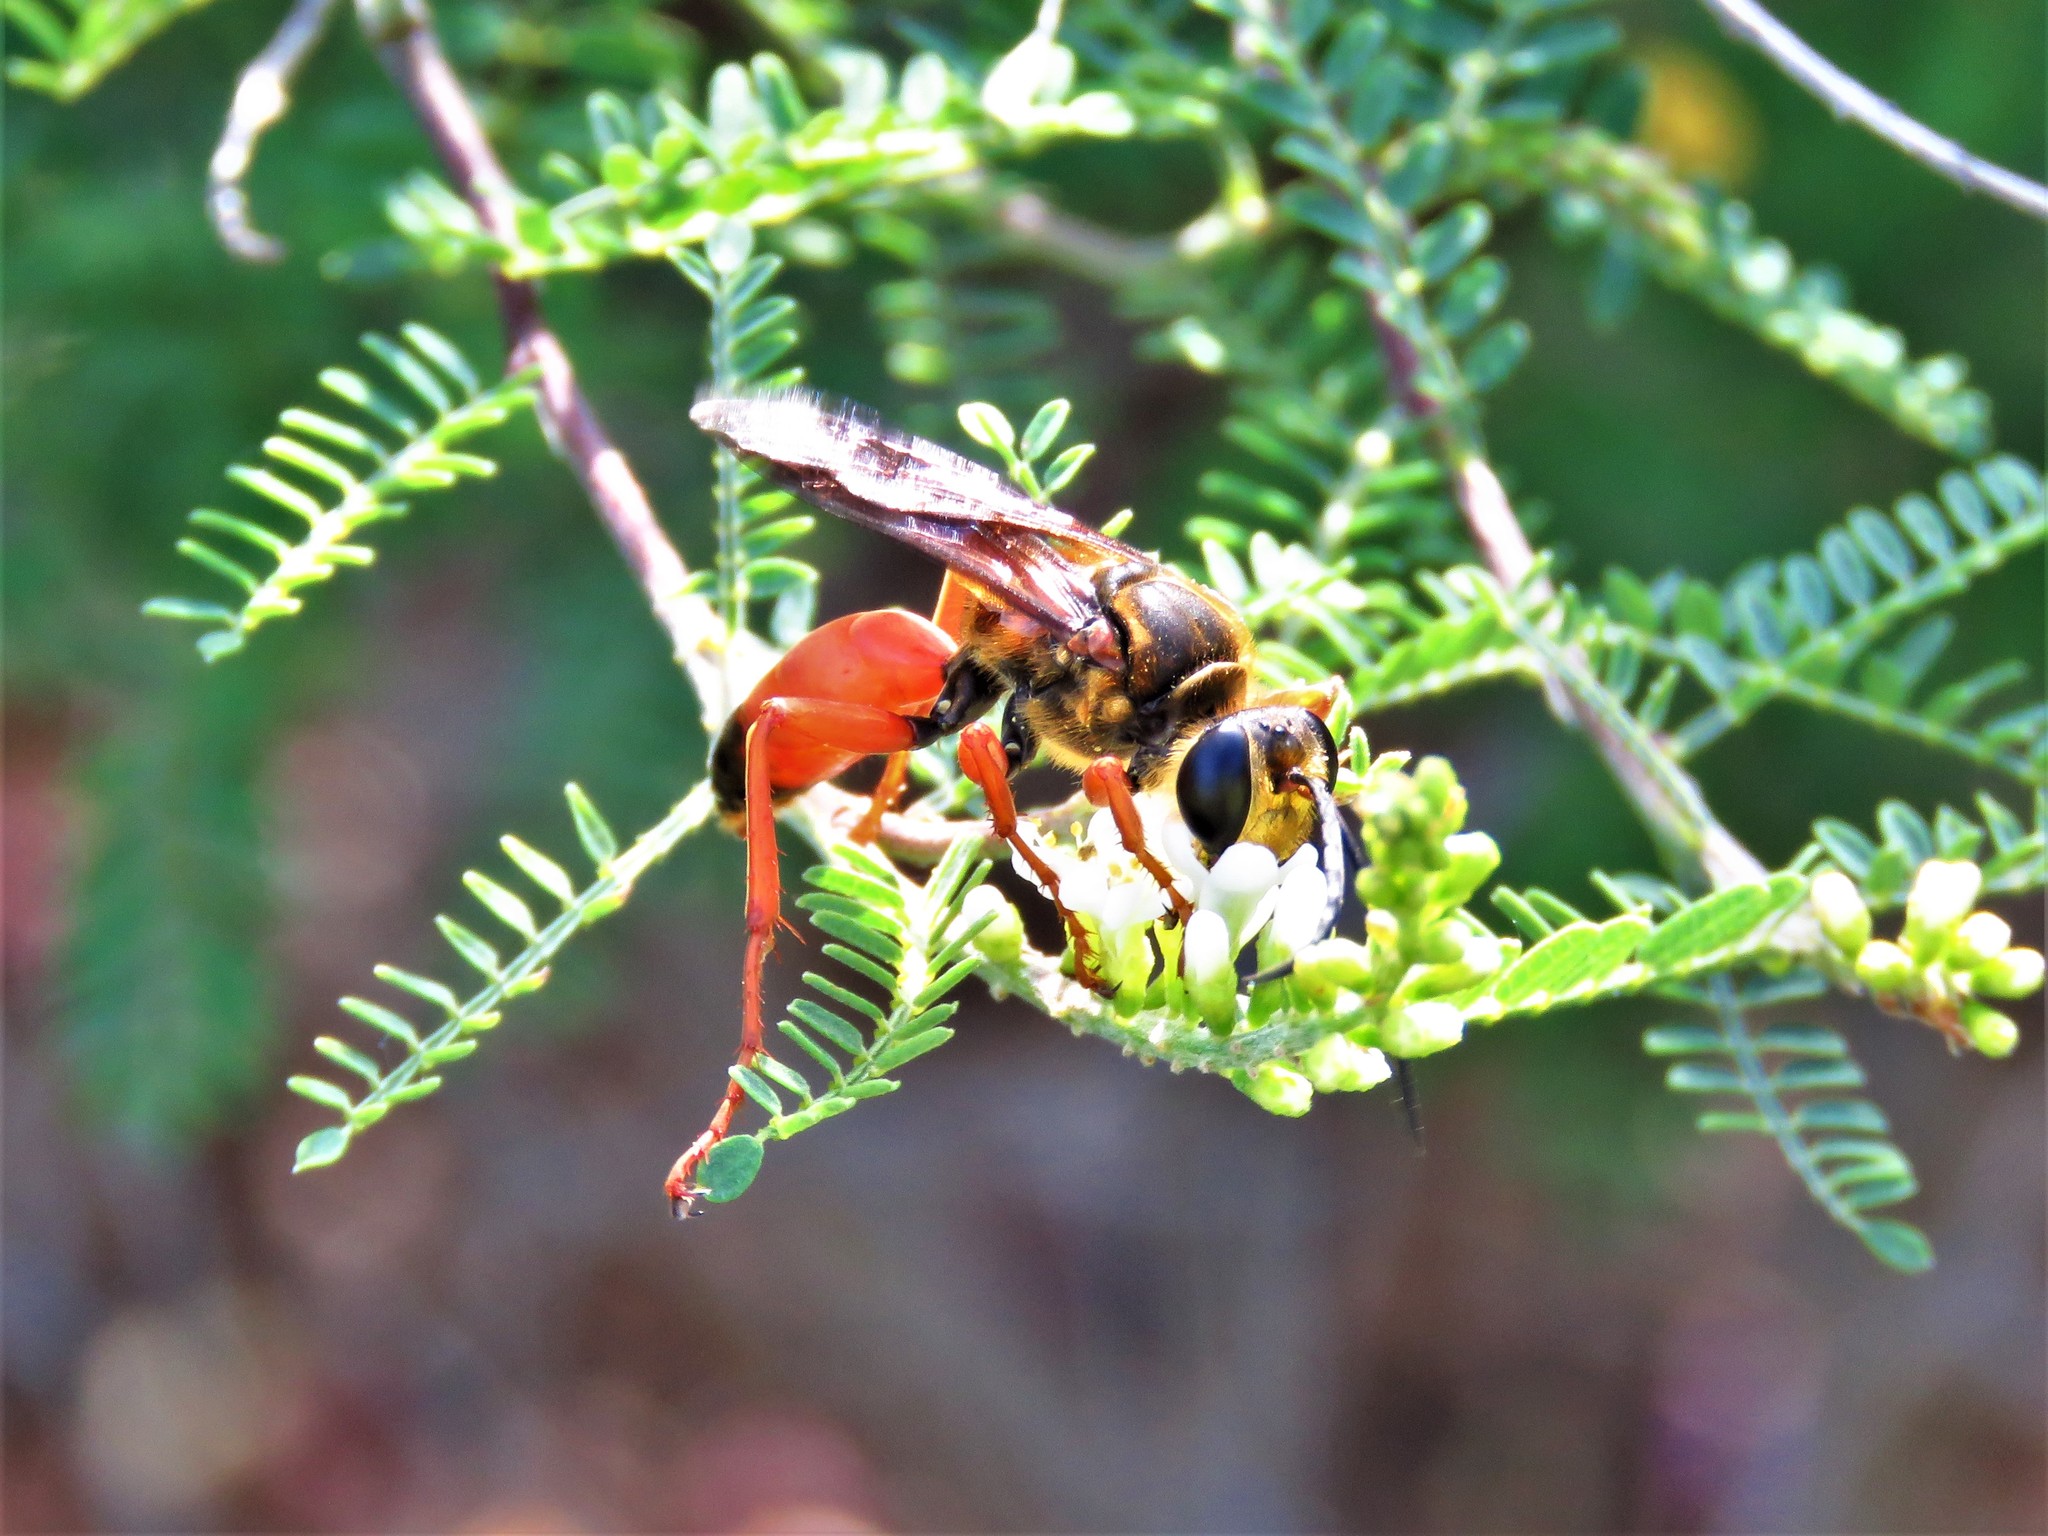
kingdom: Animalia
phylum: Arthropoda
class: Insecta
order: Hymenoptera
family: Sphecidae
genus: Sphex
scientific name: Sphex ichneumoneus
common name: Great golden digger wasp
